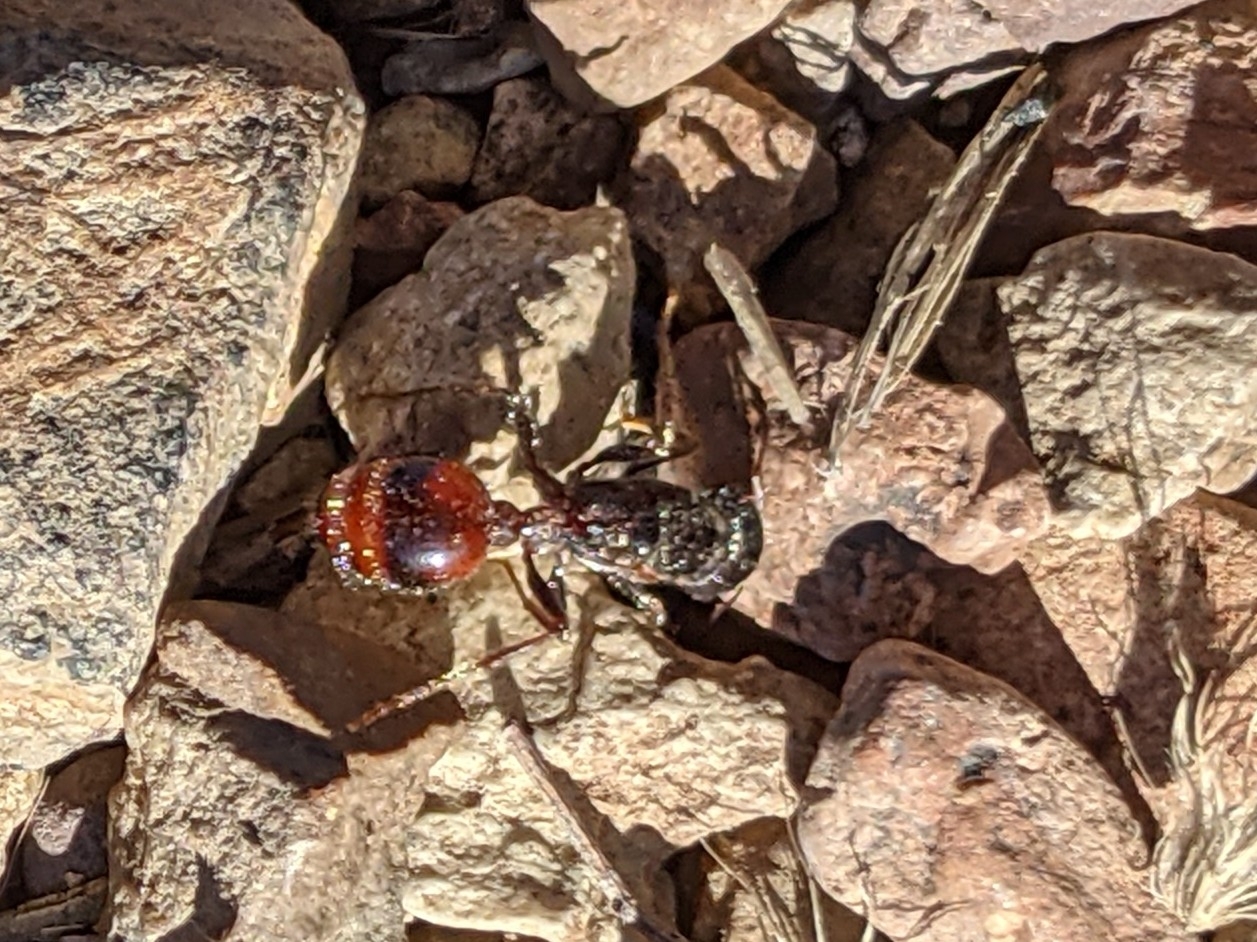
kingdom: Animalia
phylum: Arthropoda
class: Insecta
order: Hymenoptera
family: Formicidae
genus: Pogonomyrmex
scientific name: Pogonomyrmex rugosus
